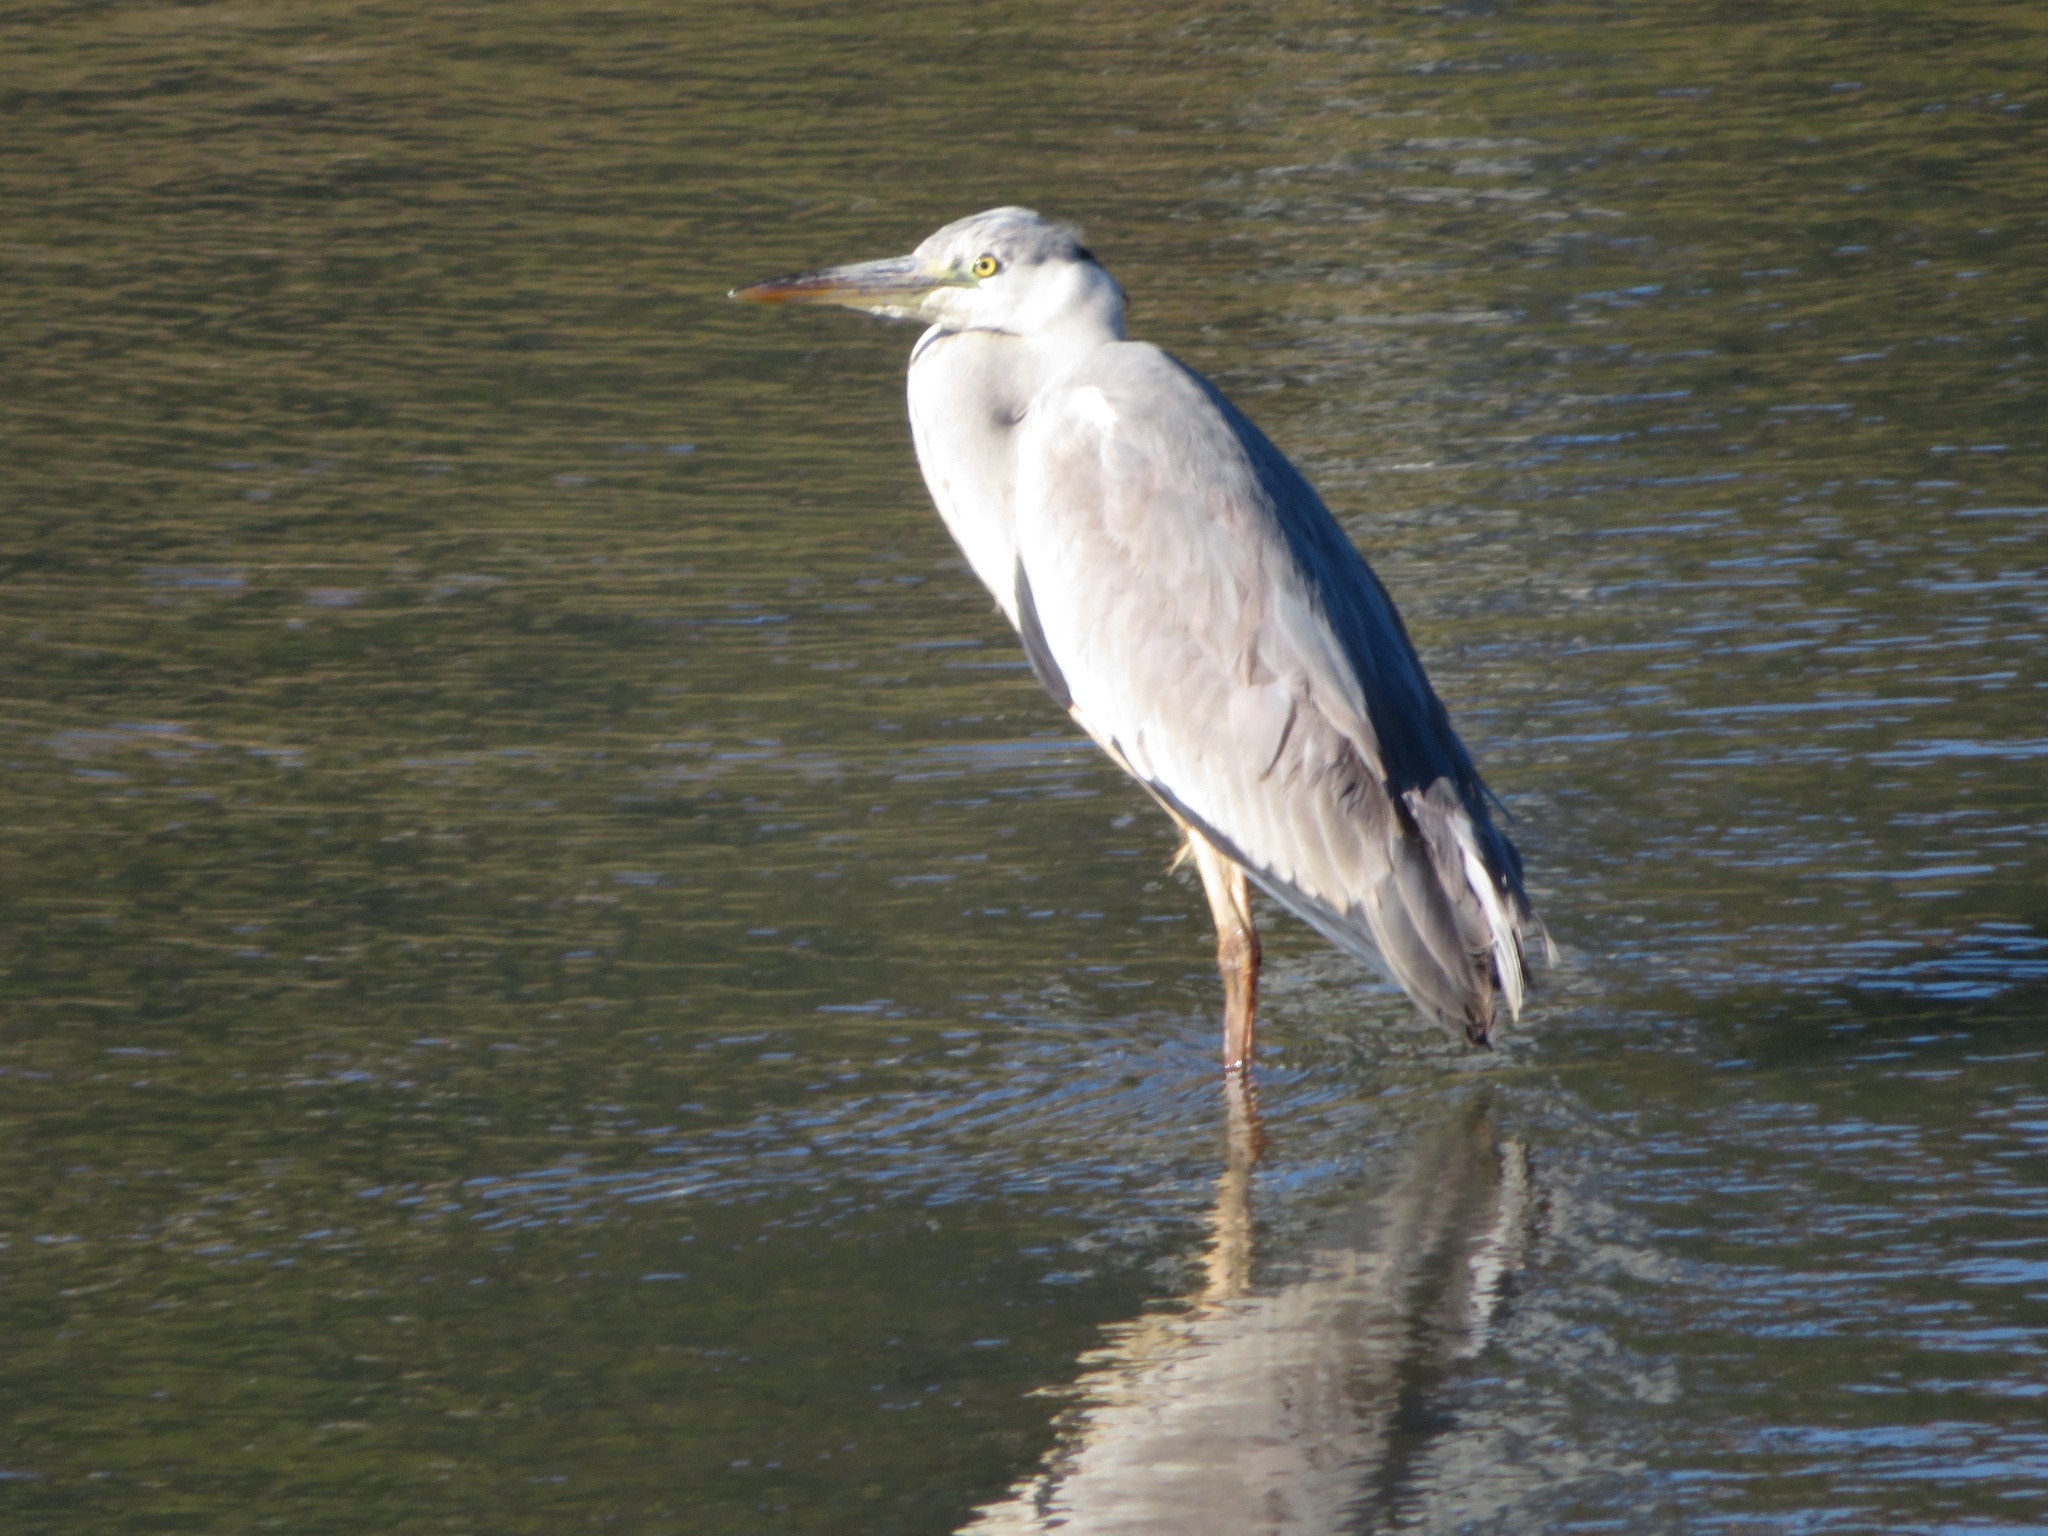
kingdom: Animalia
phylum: Chordata
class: Aves
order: Pelecaniformes
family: Ardeidae
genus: Ardea
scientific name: Ardea cinerea
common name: Grey heron
